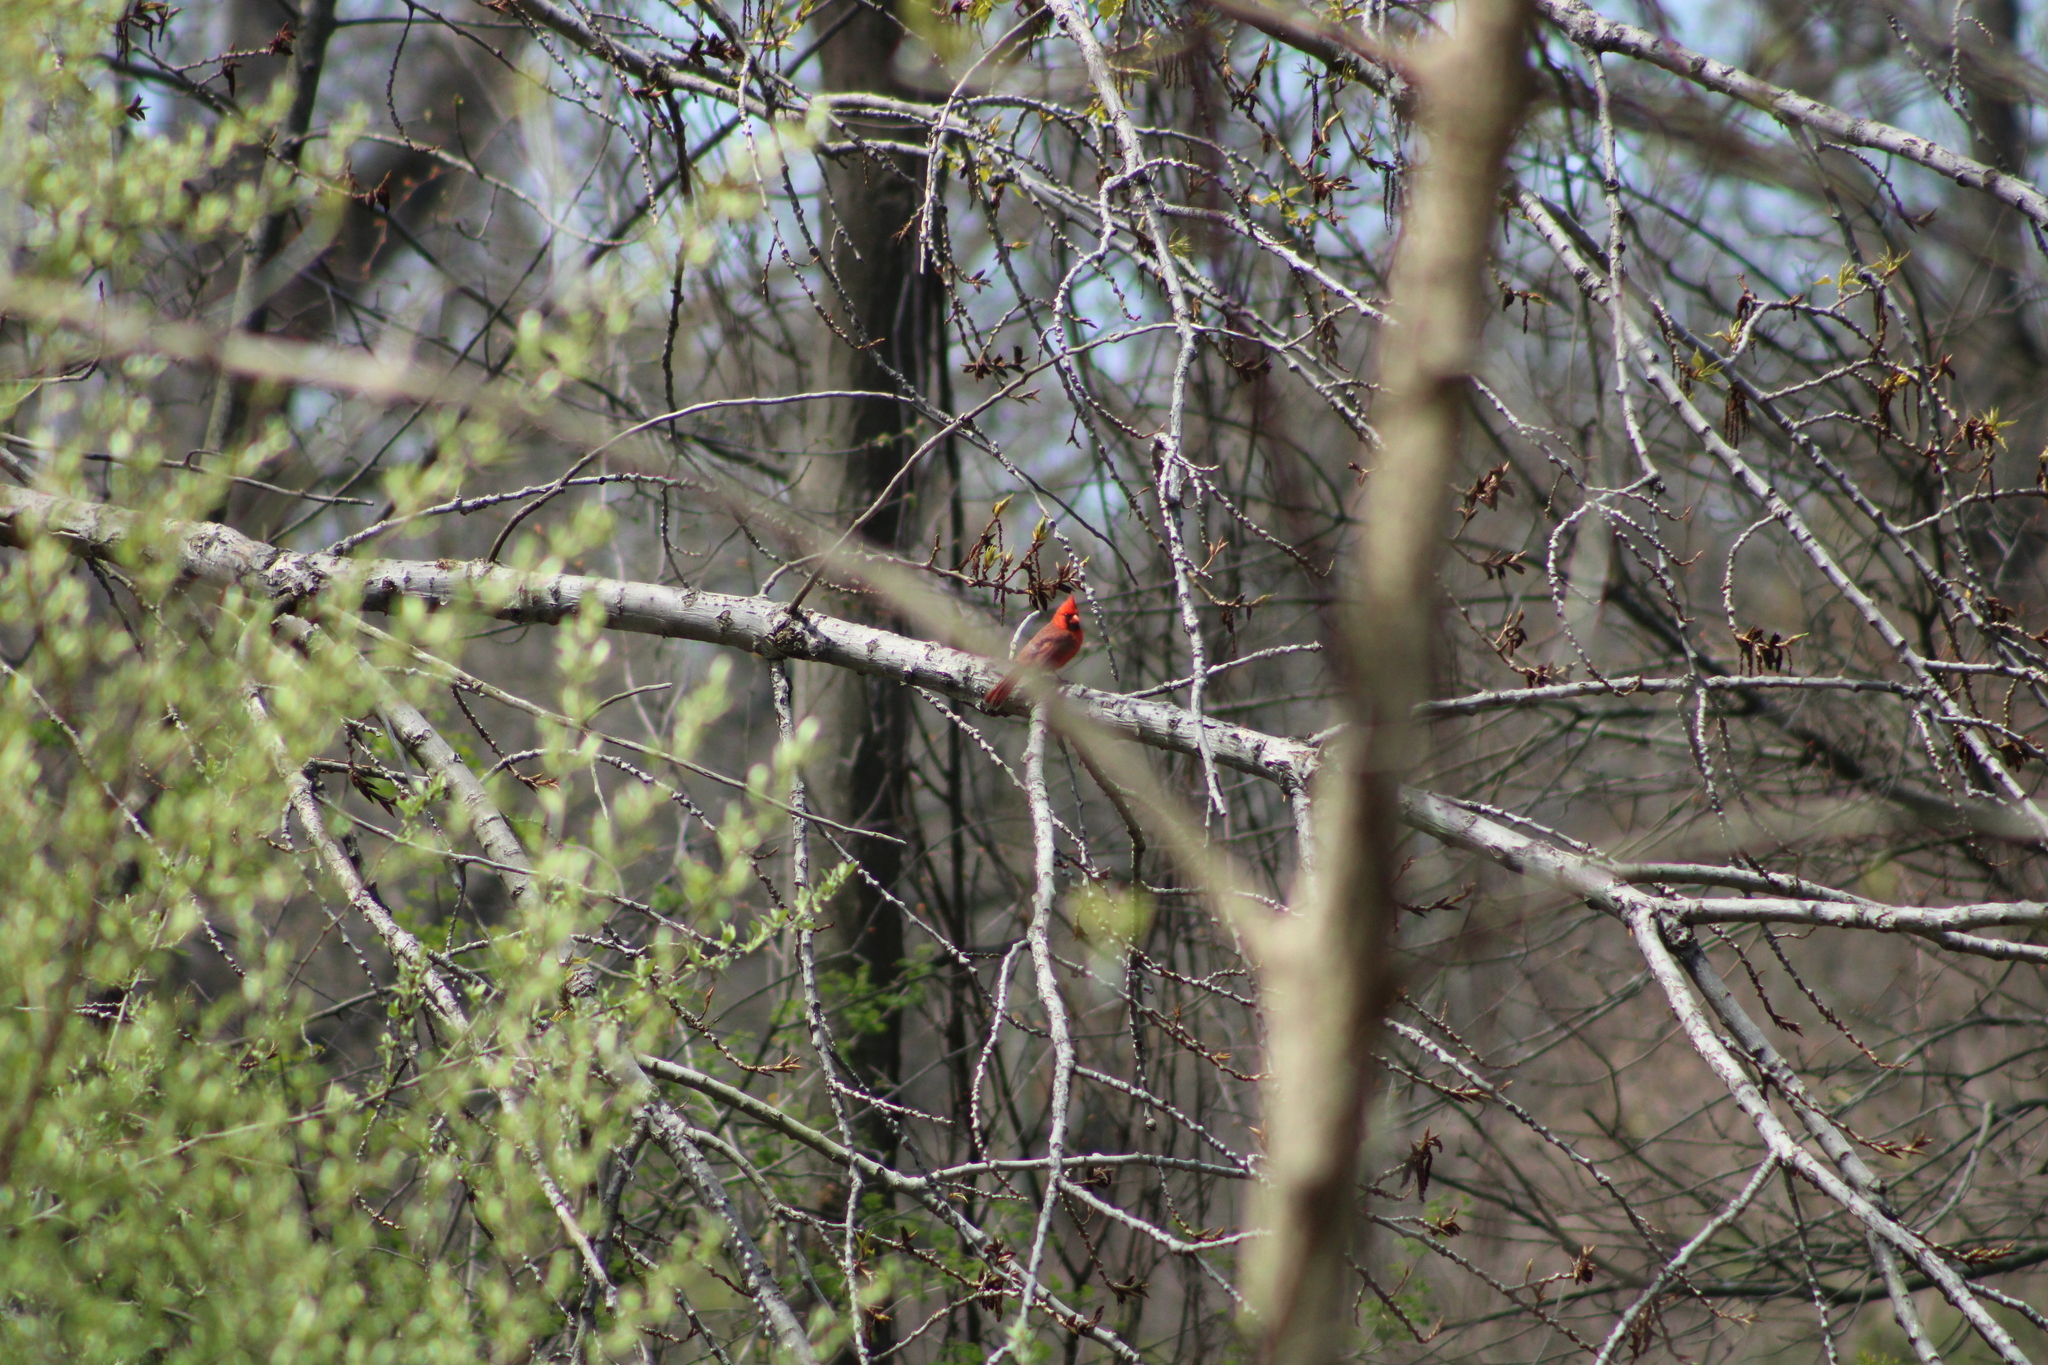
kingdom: Animalia
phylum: Chordata
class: Aves
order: Passeriformes
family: Cardinalidae
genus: Cardinalis
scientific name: Cardinalis cardinalis
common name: Northern cardinal
